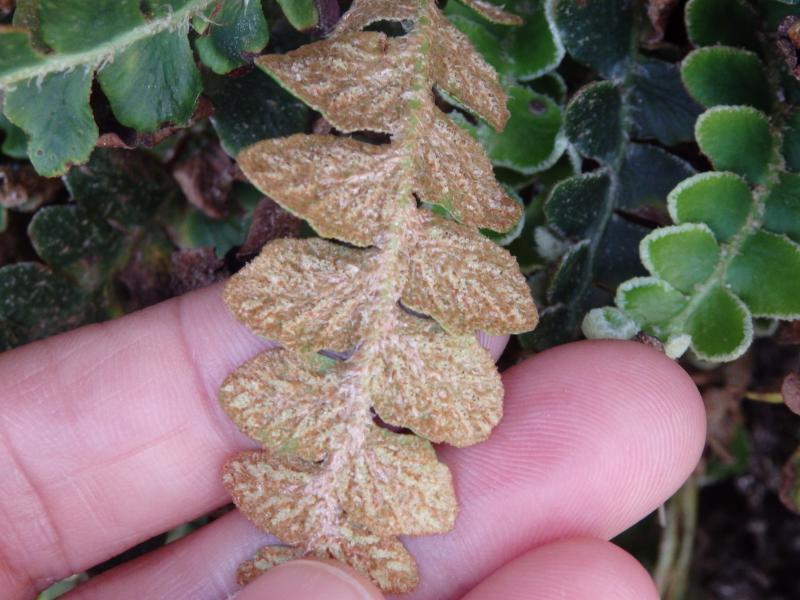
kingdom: Plantae
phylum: Tracheophyta
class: Polypodiopsida
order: Polypodiales
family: Aspleniaceae
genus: Asplenium
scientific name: Asplenium ceterach
